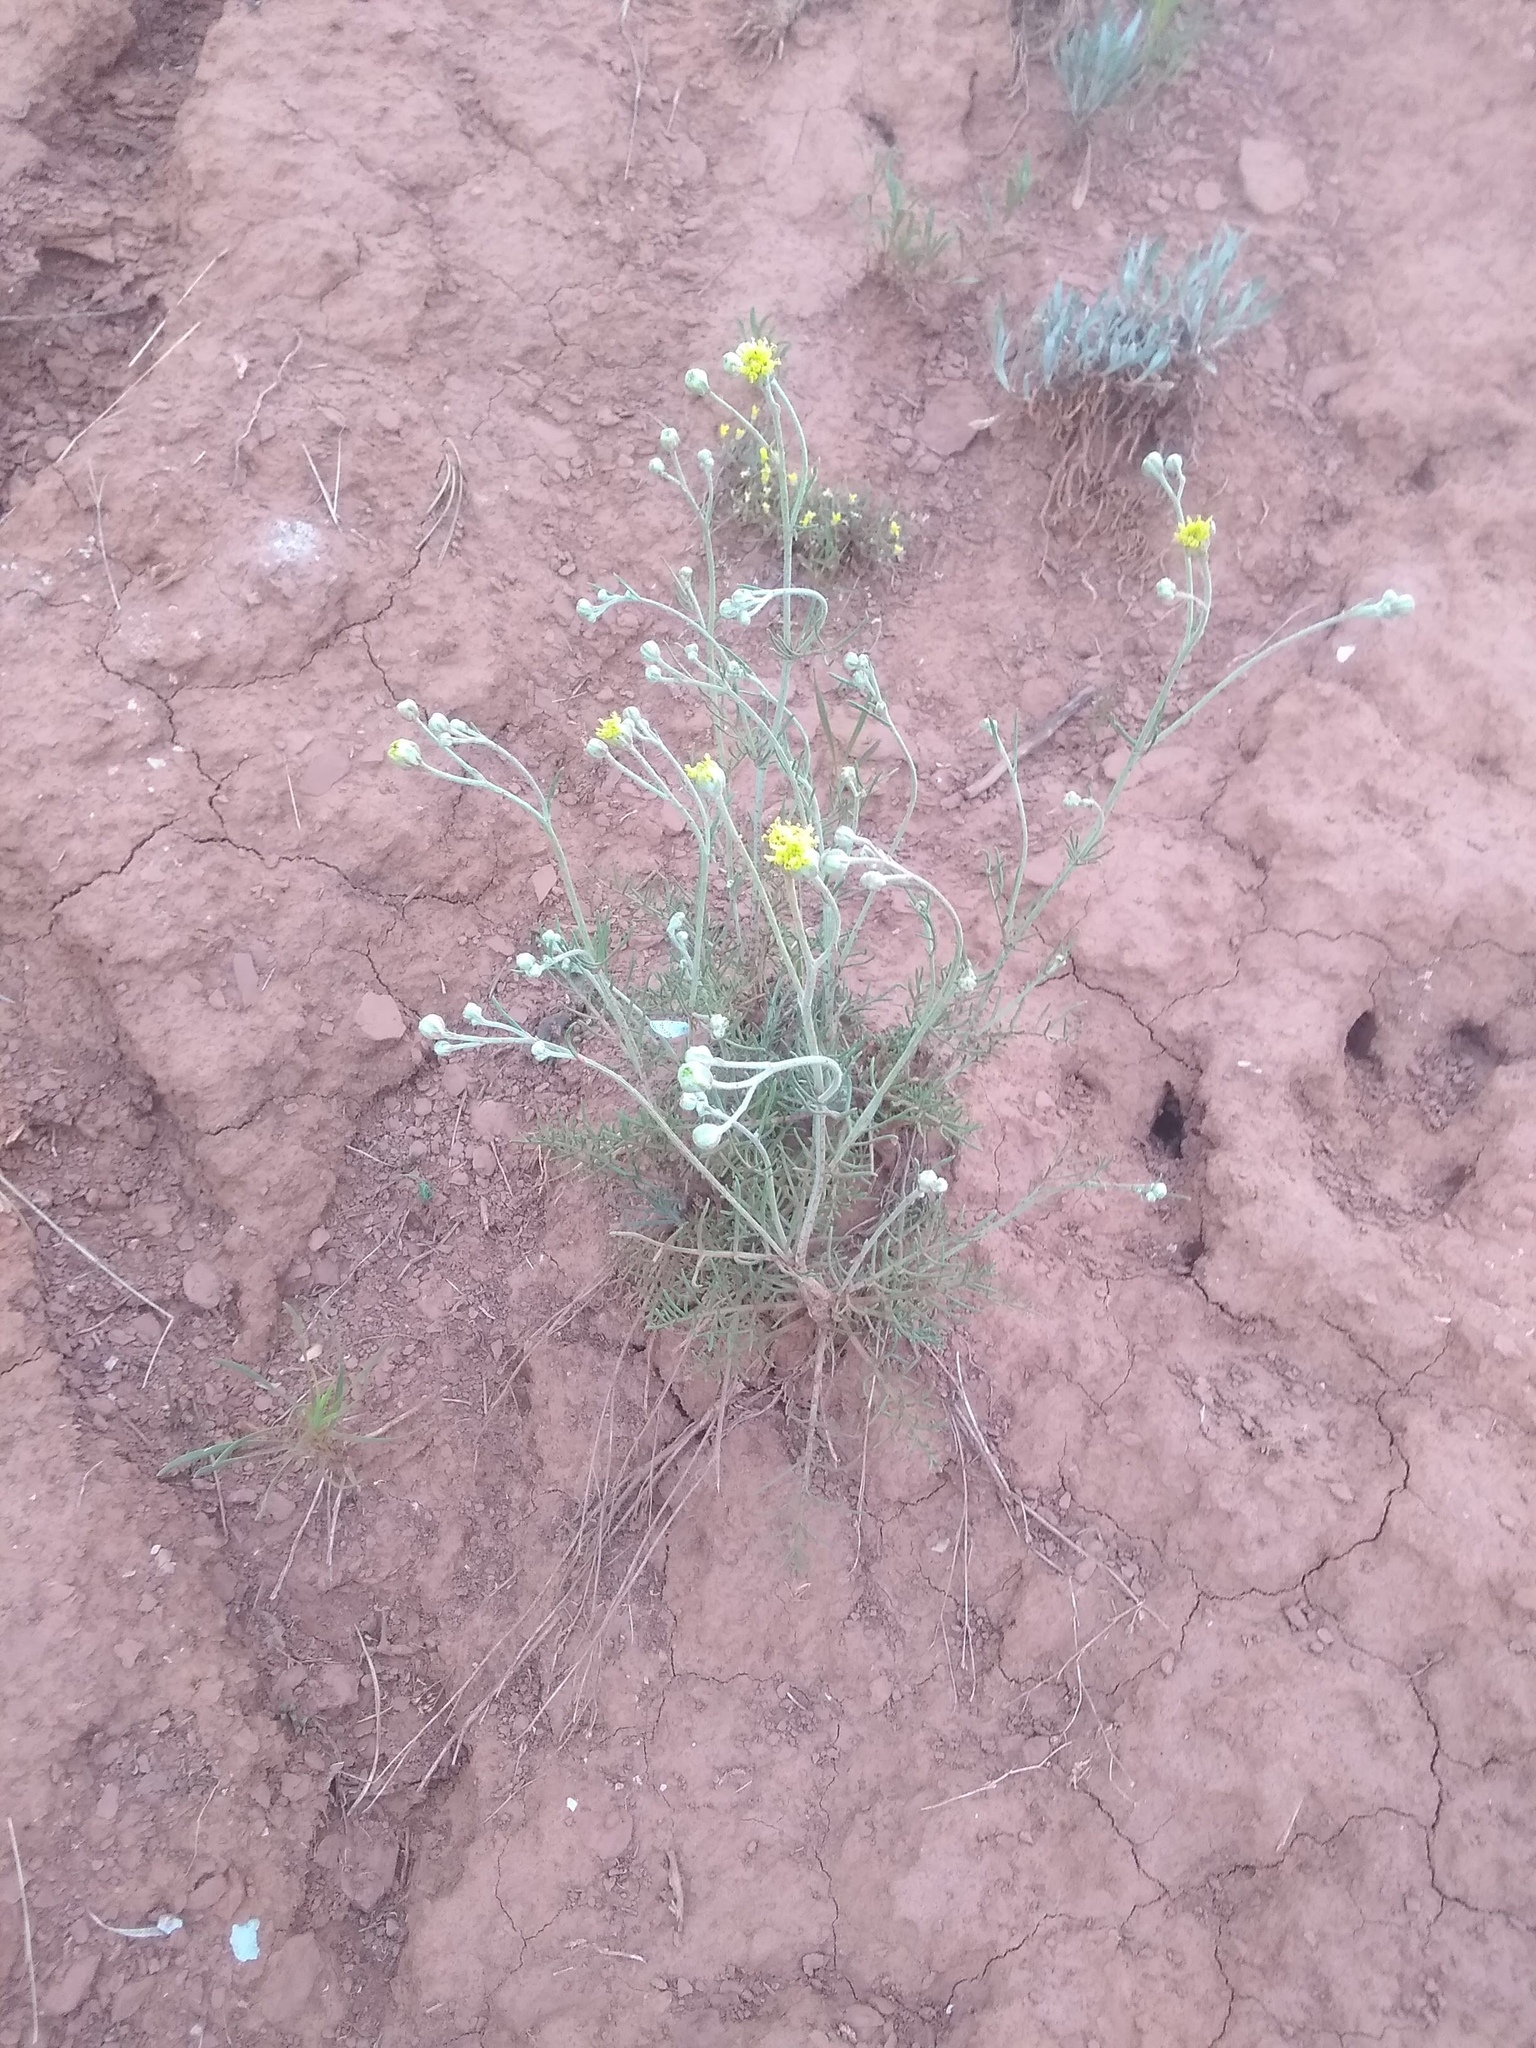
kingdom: Plantae
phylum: Tracheophyta
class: Magnoliopsida
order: Asterales
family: Asteraceae
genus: Hymenopappus
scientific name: Hymenopappus filifolius
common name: Columbia cutleaf
